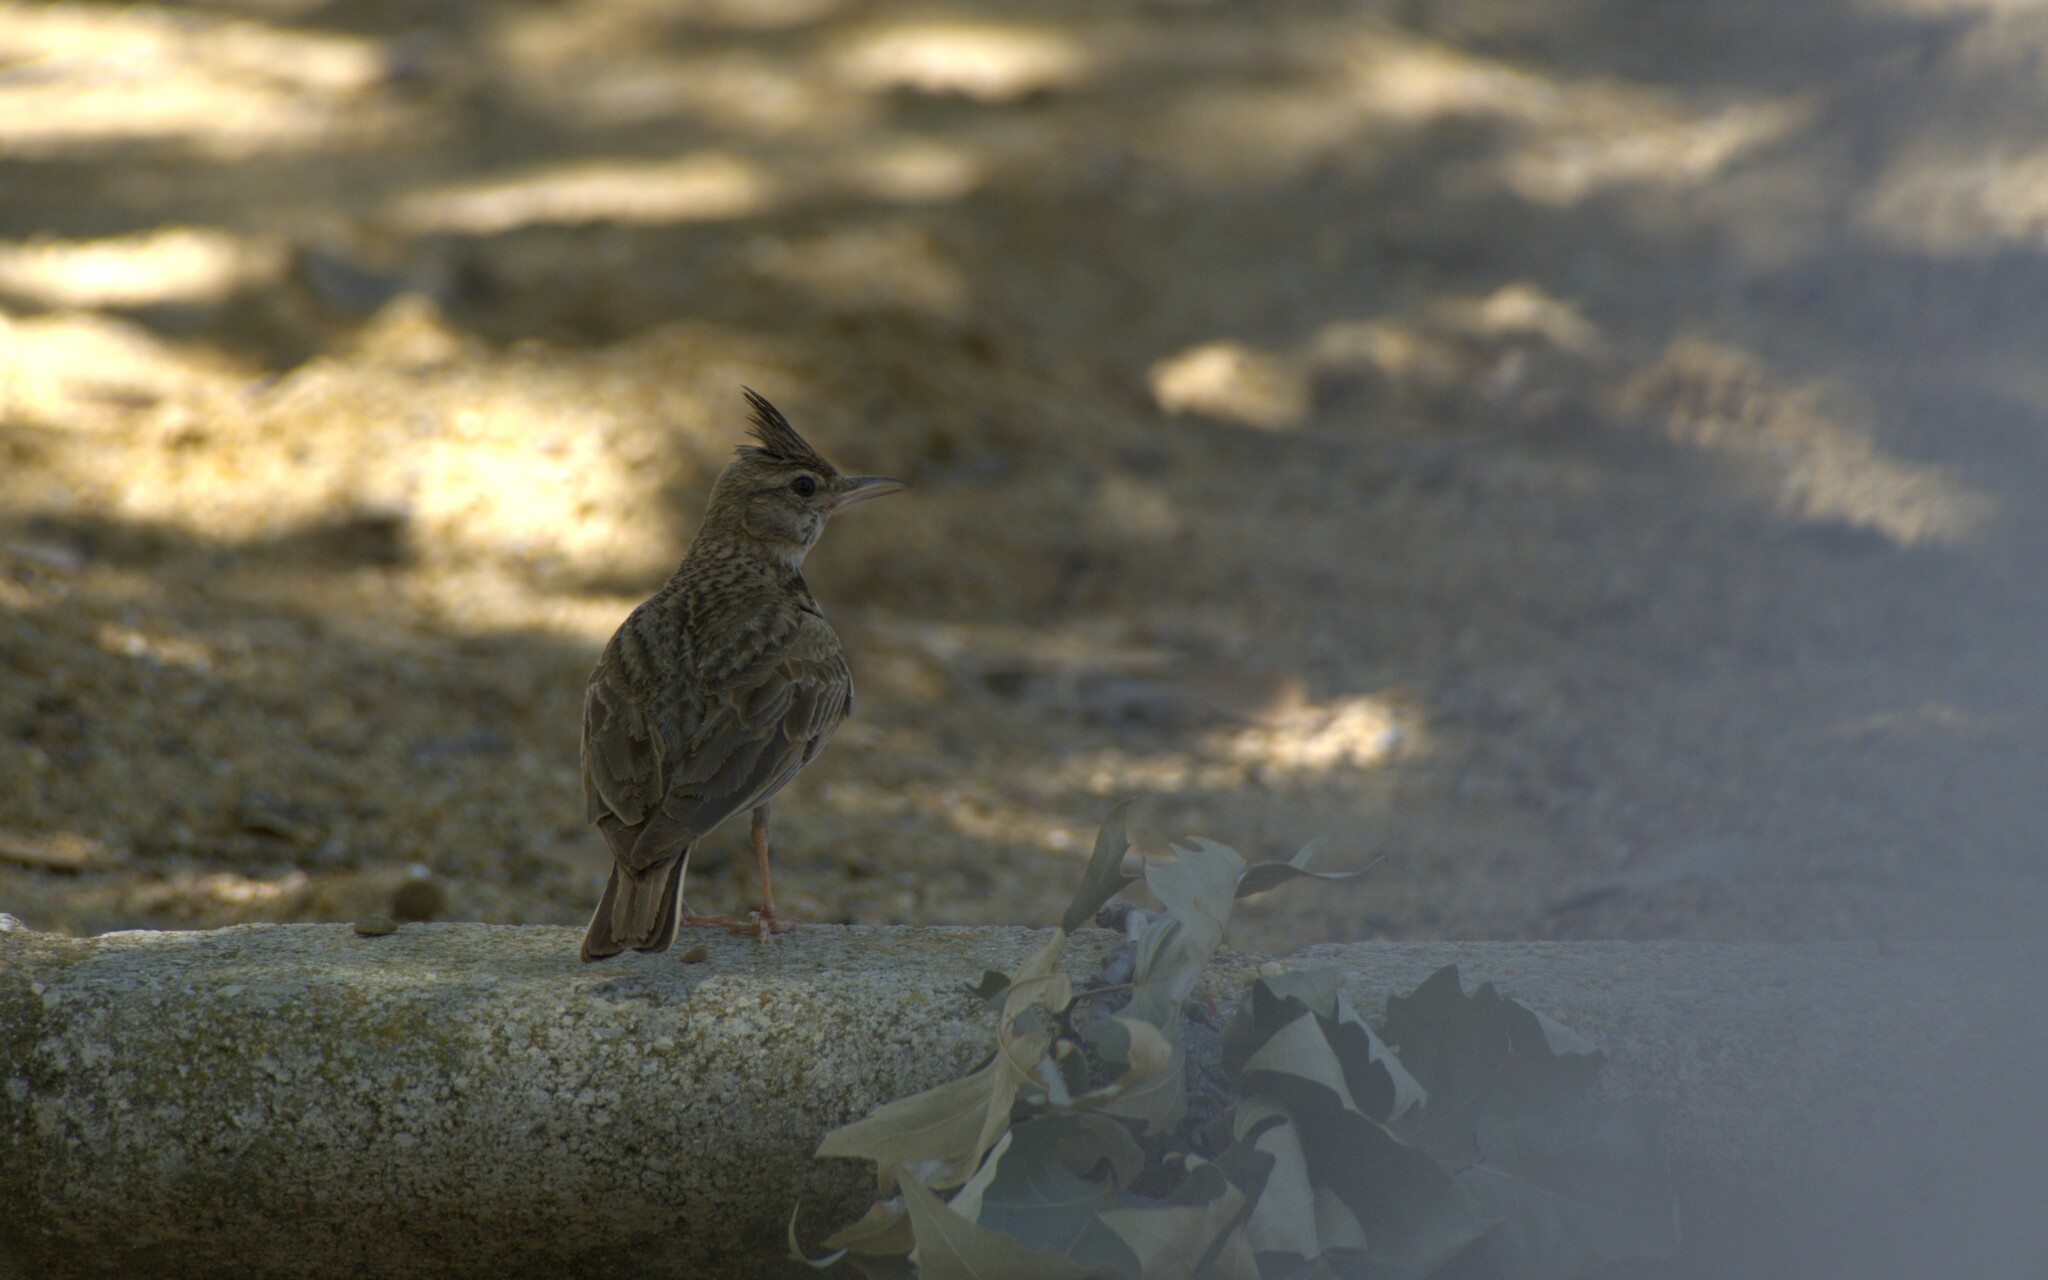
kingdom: Animalia
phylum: Chordata
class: Aves
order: Passeriformes
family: Alaudidae
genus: Galerida
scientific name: Galerida cristata
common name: Crested lark
